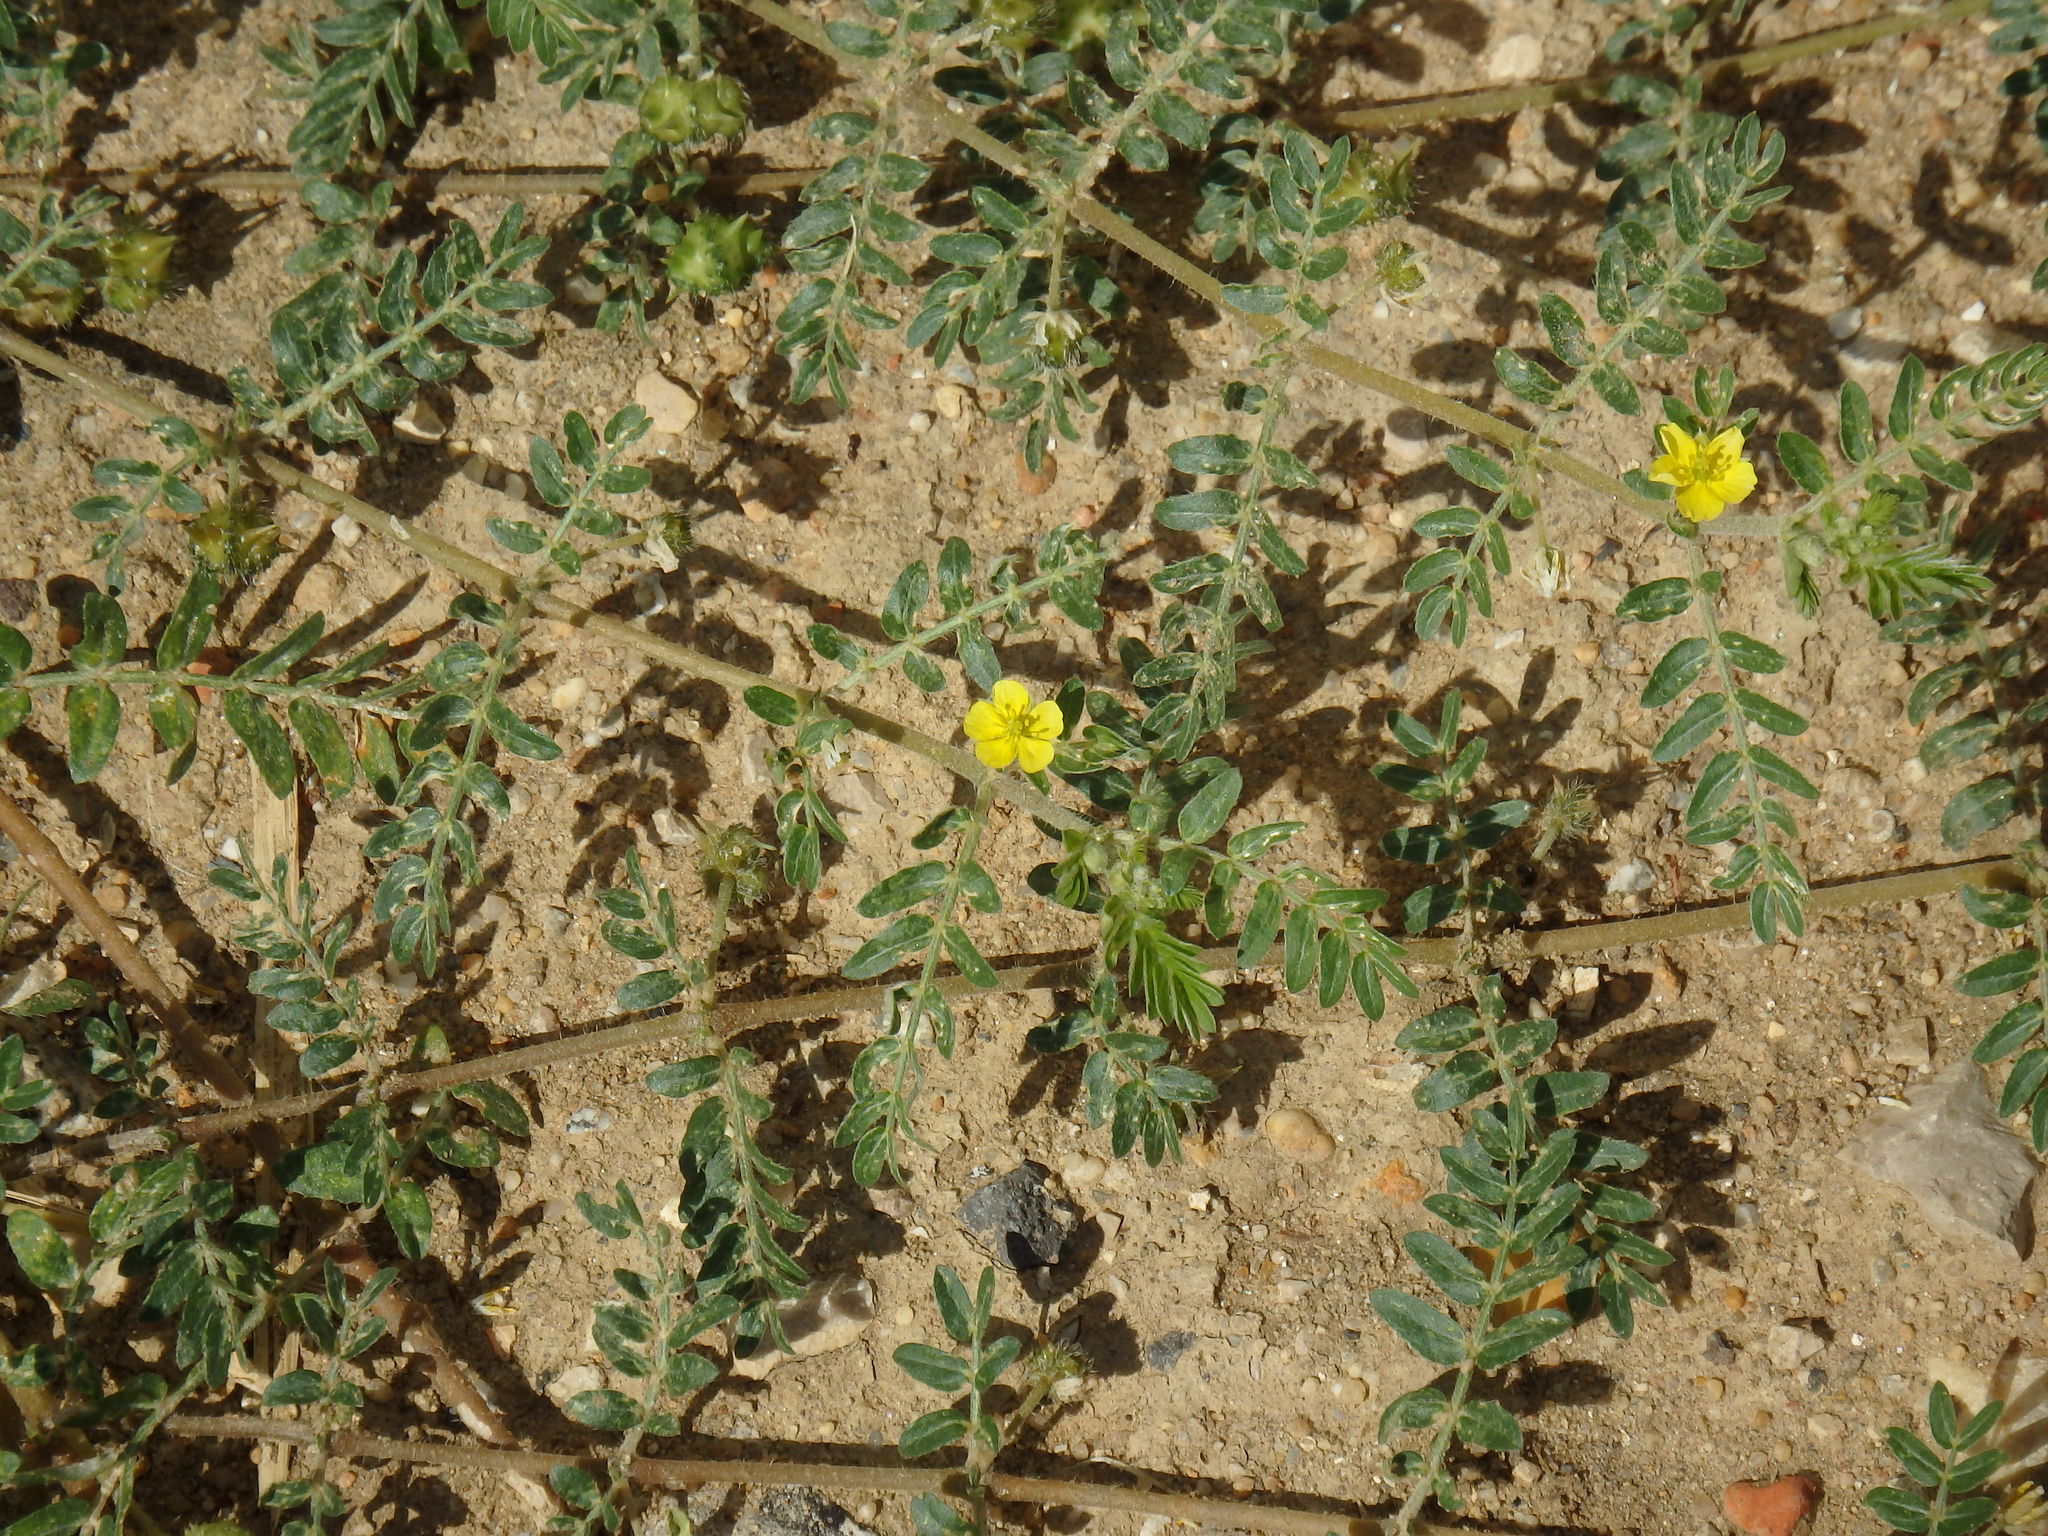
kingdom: Plantae
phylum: Tracheophyta
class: Magnoliopsida
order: Zygophyllales
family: Zygophyllaceae
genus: Tribulus
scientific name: Tribulus terrestris
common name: Puncturevine
